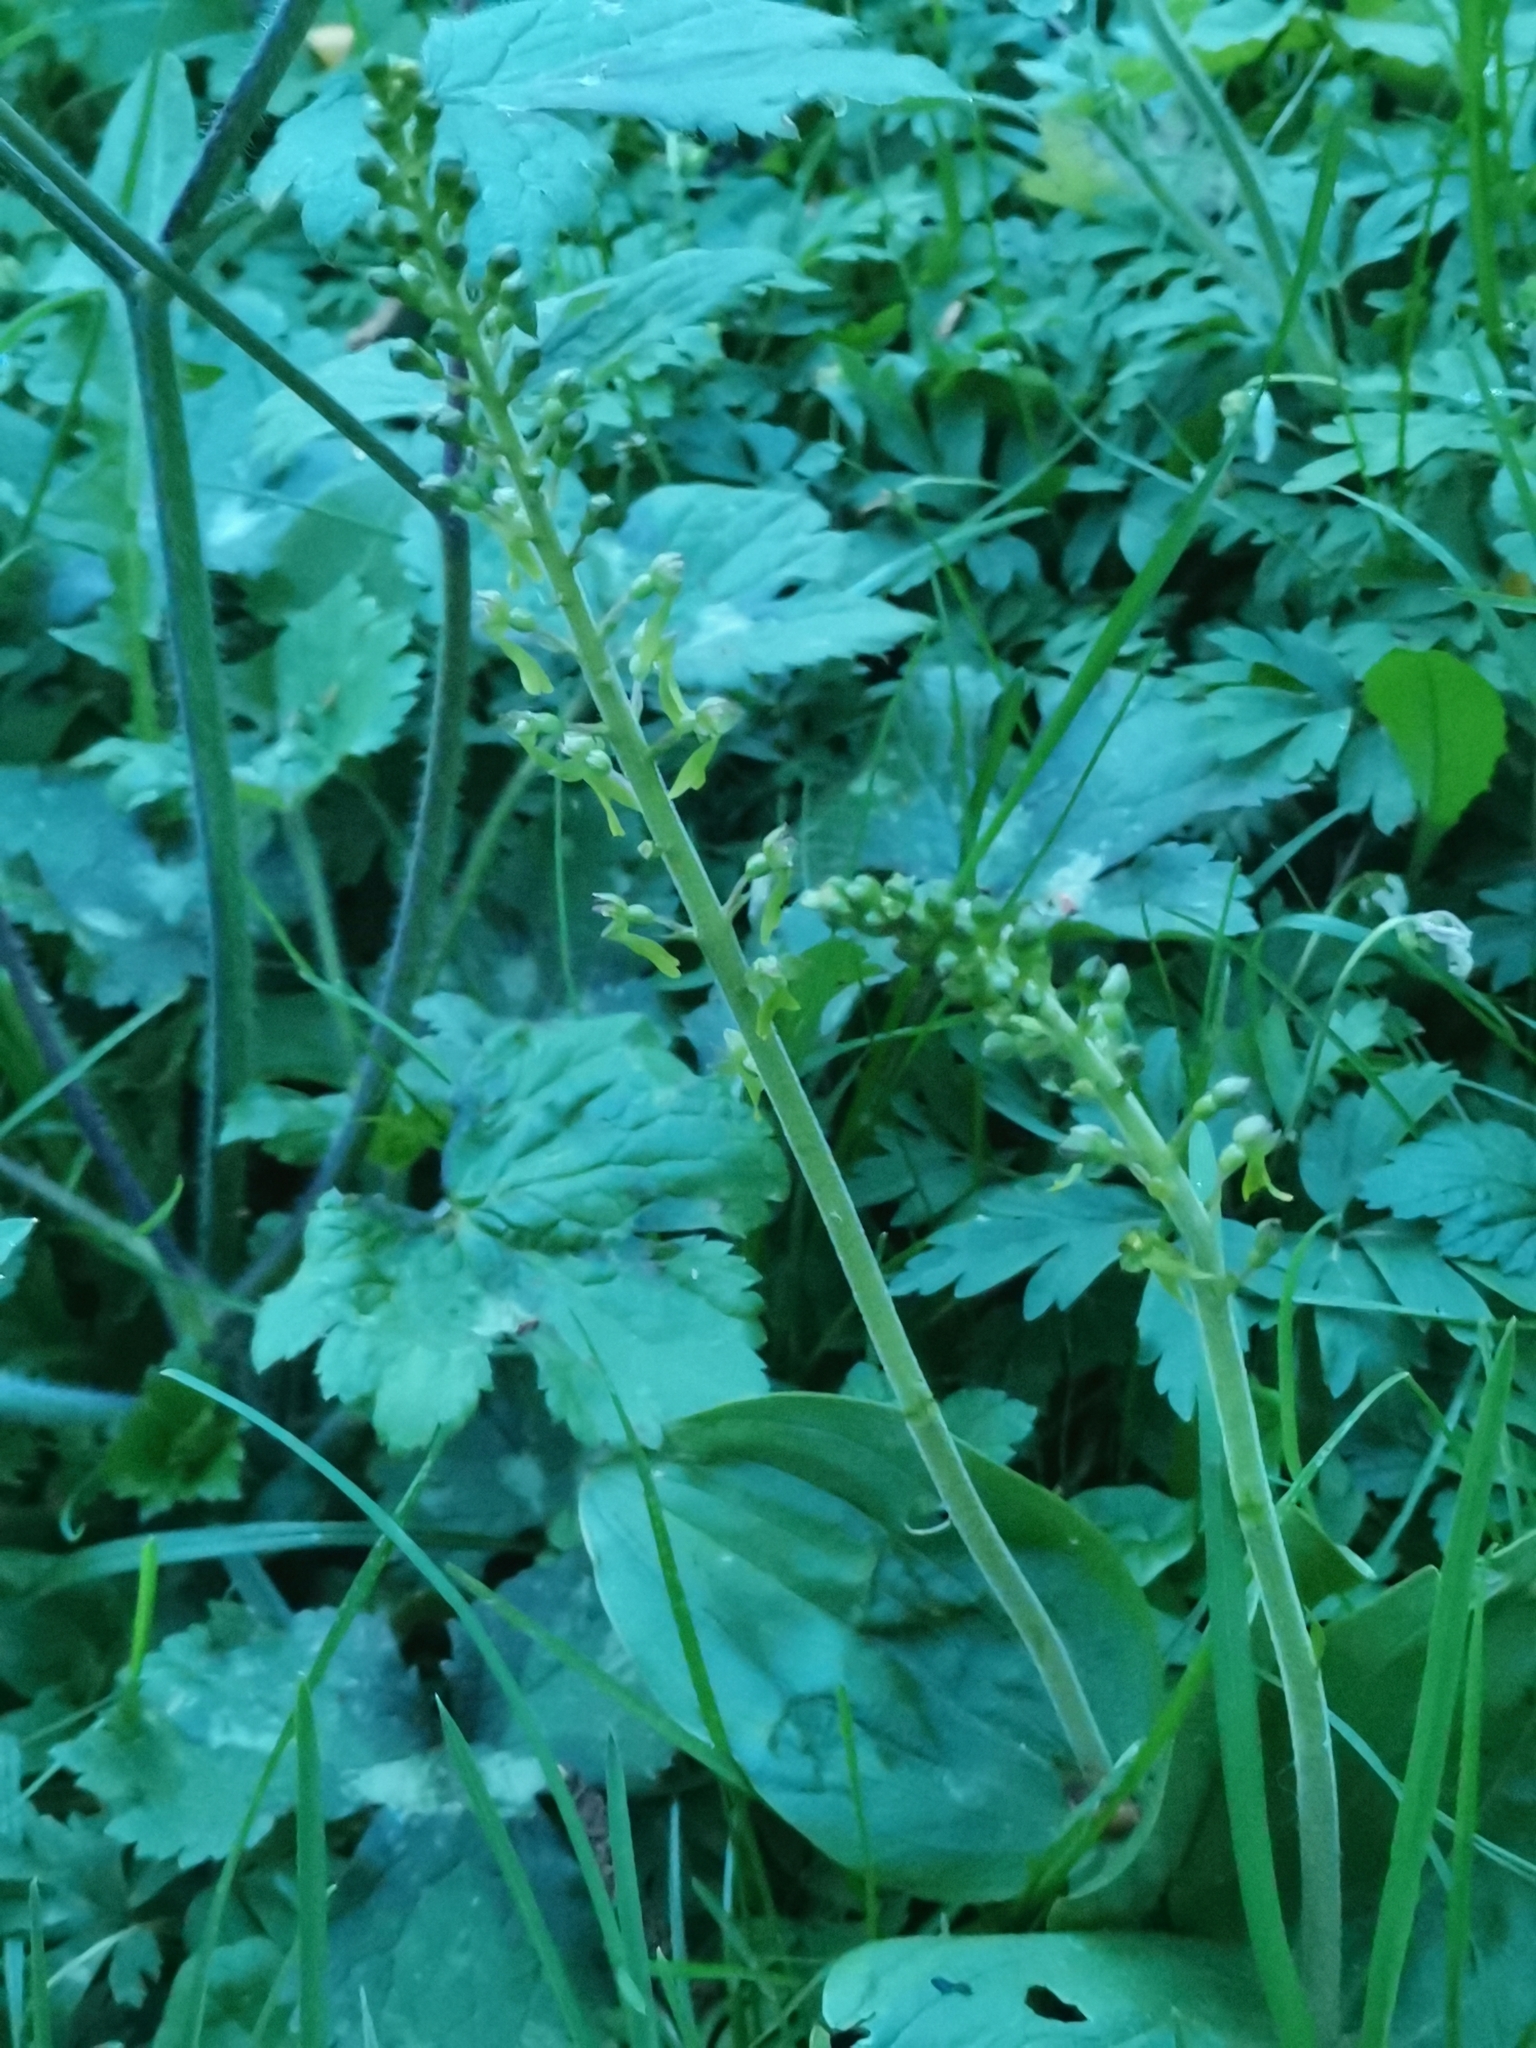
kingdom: Plantae
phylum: Tracheophyta
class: Liliopsida
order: Asparagales
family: Orchidaceae
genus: Neottia
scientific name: Neottia ovata
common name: Common twayblade
